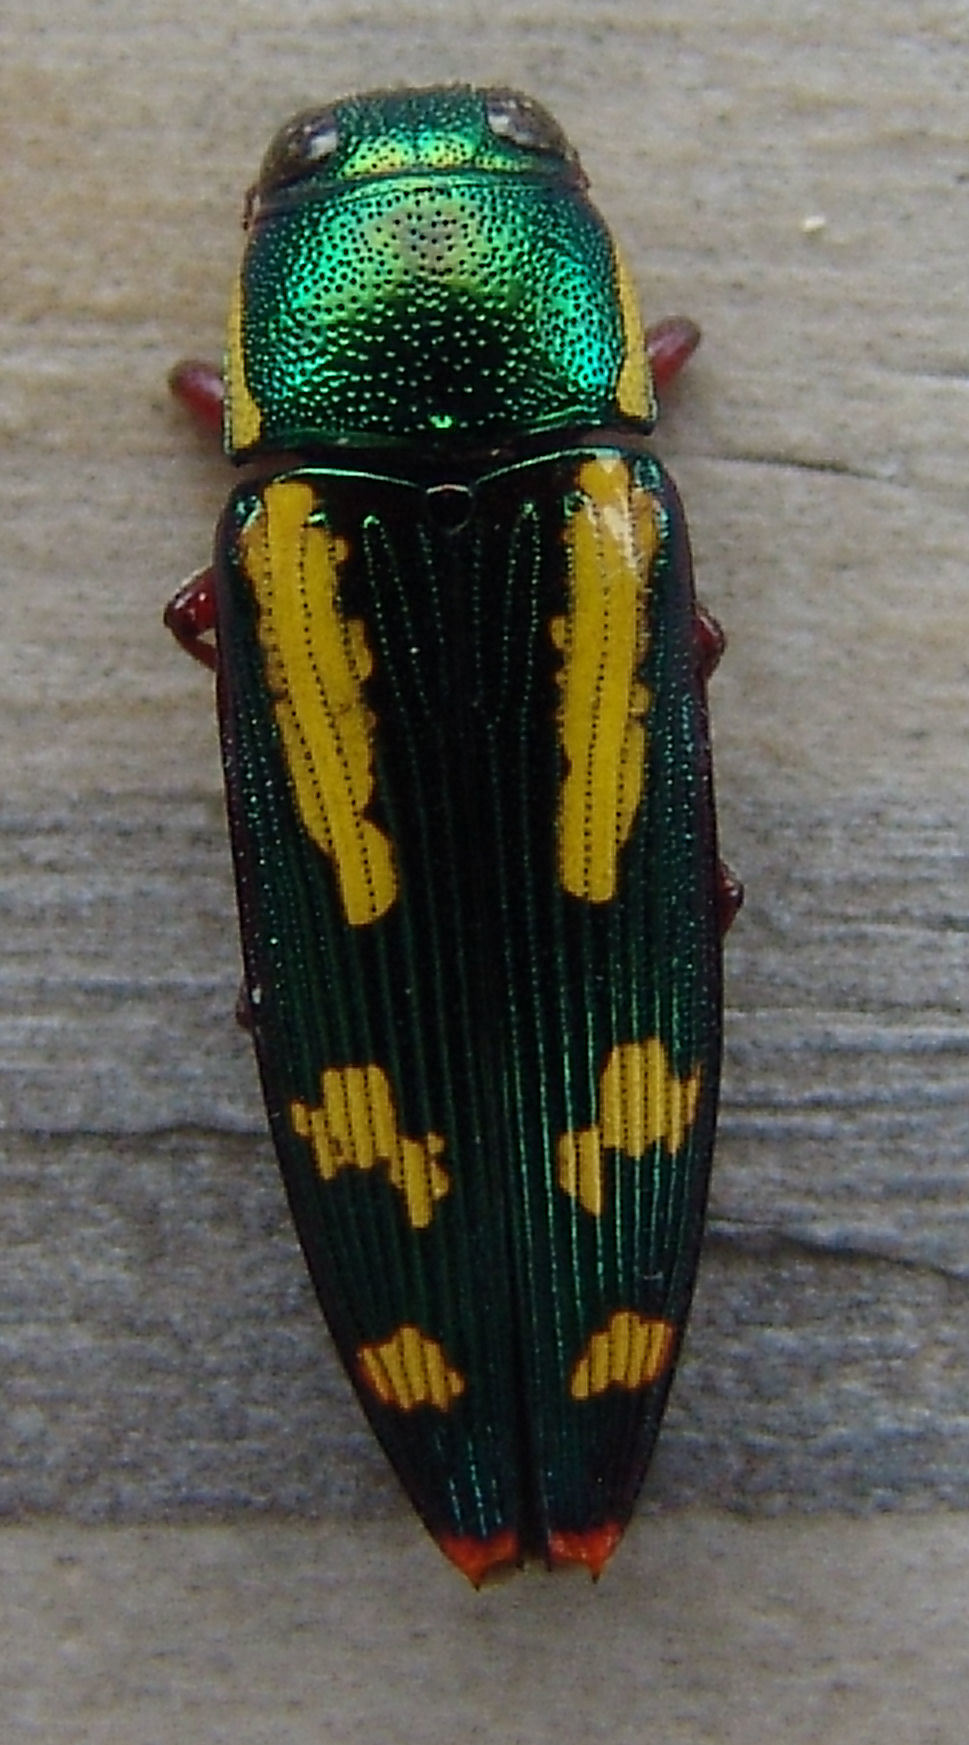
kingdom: Animalia
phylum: Arthropoda
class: Insecta
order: Coleoptera
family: Buprestidae
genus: Buprestis
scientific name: Buprestis rufipes
